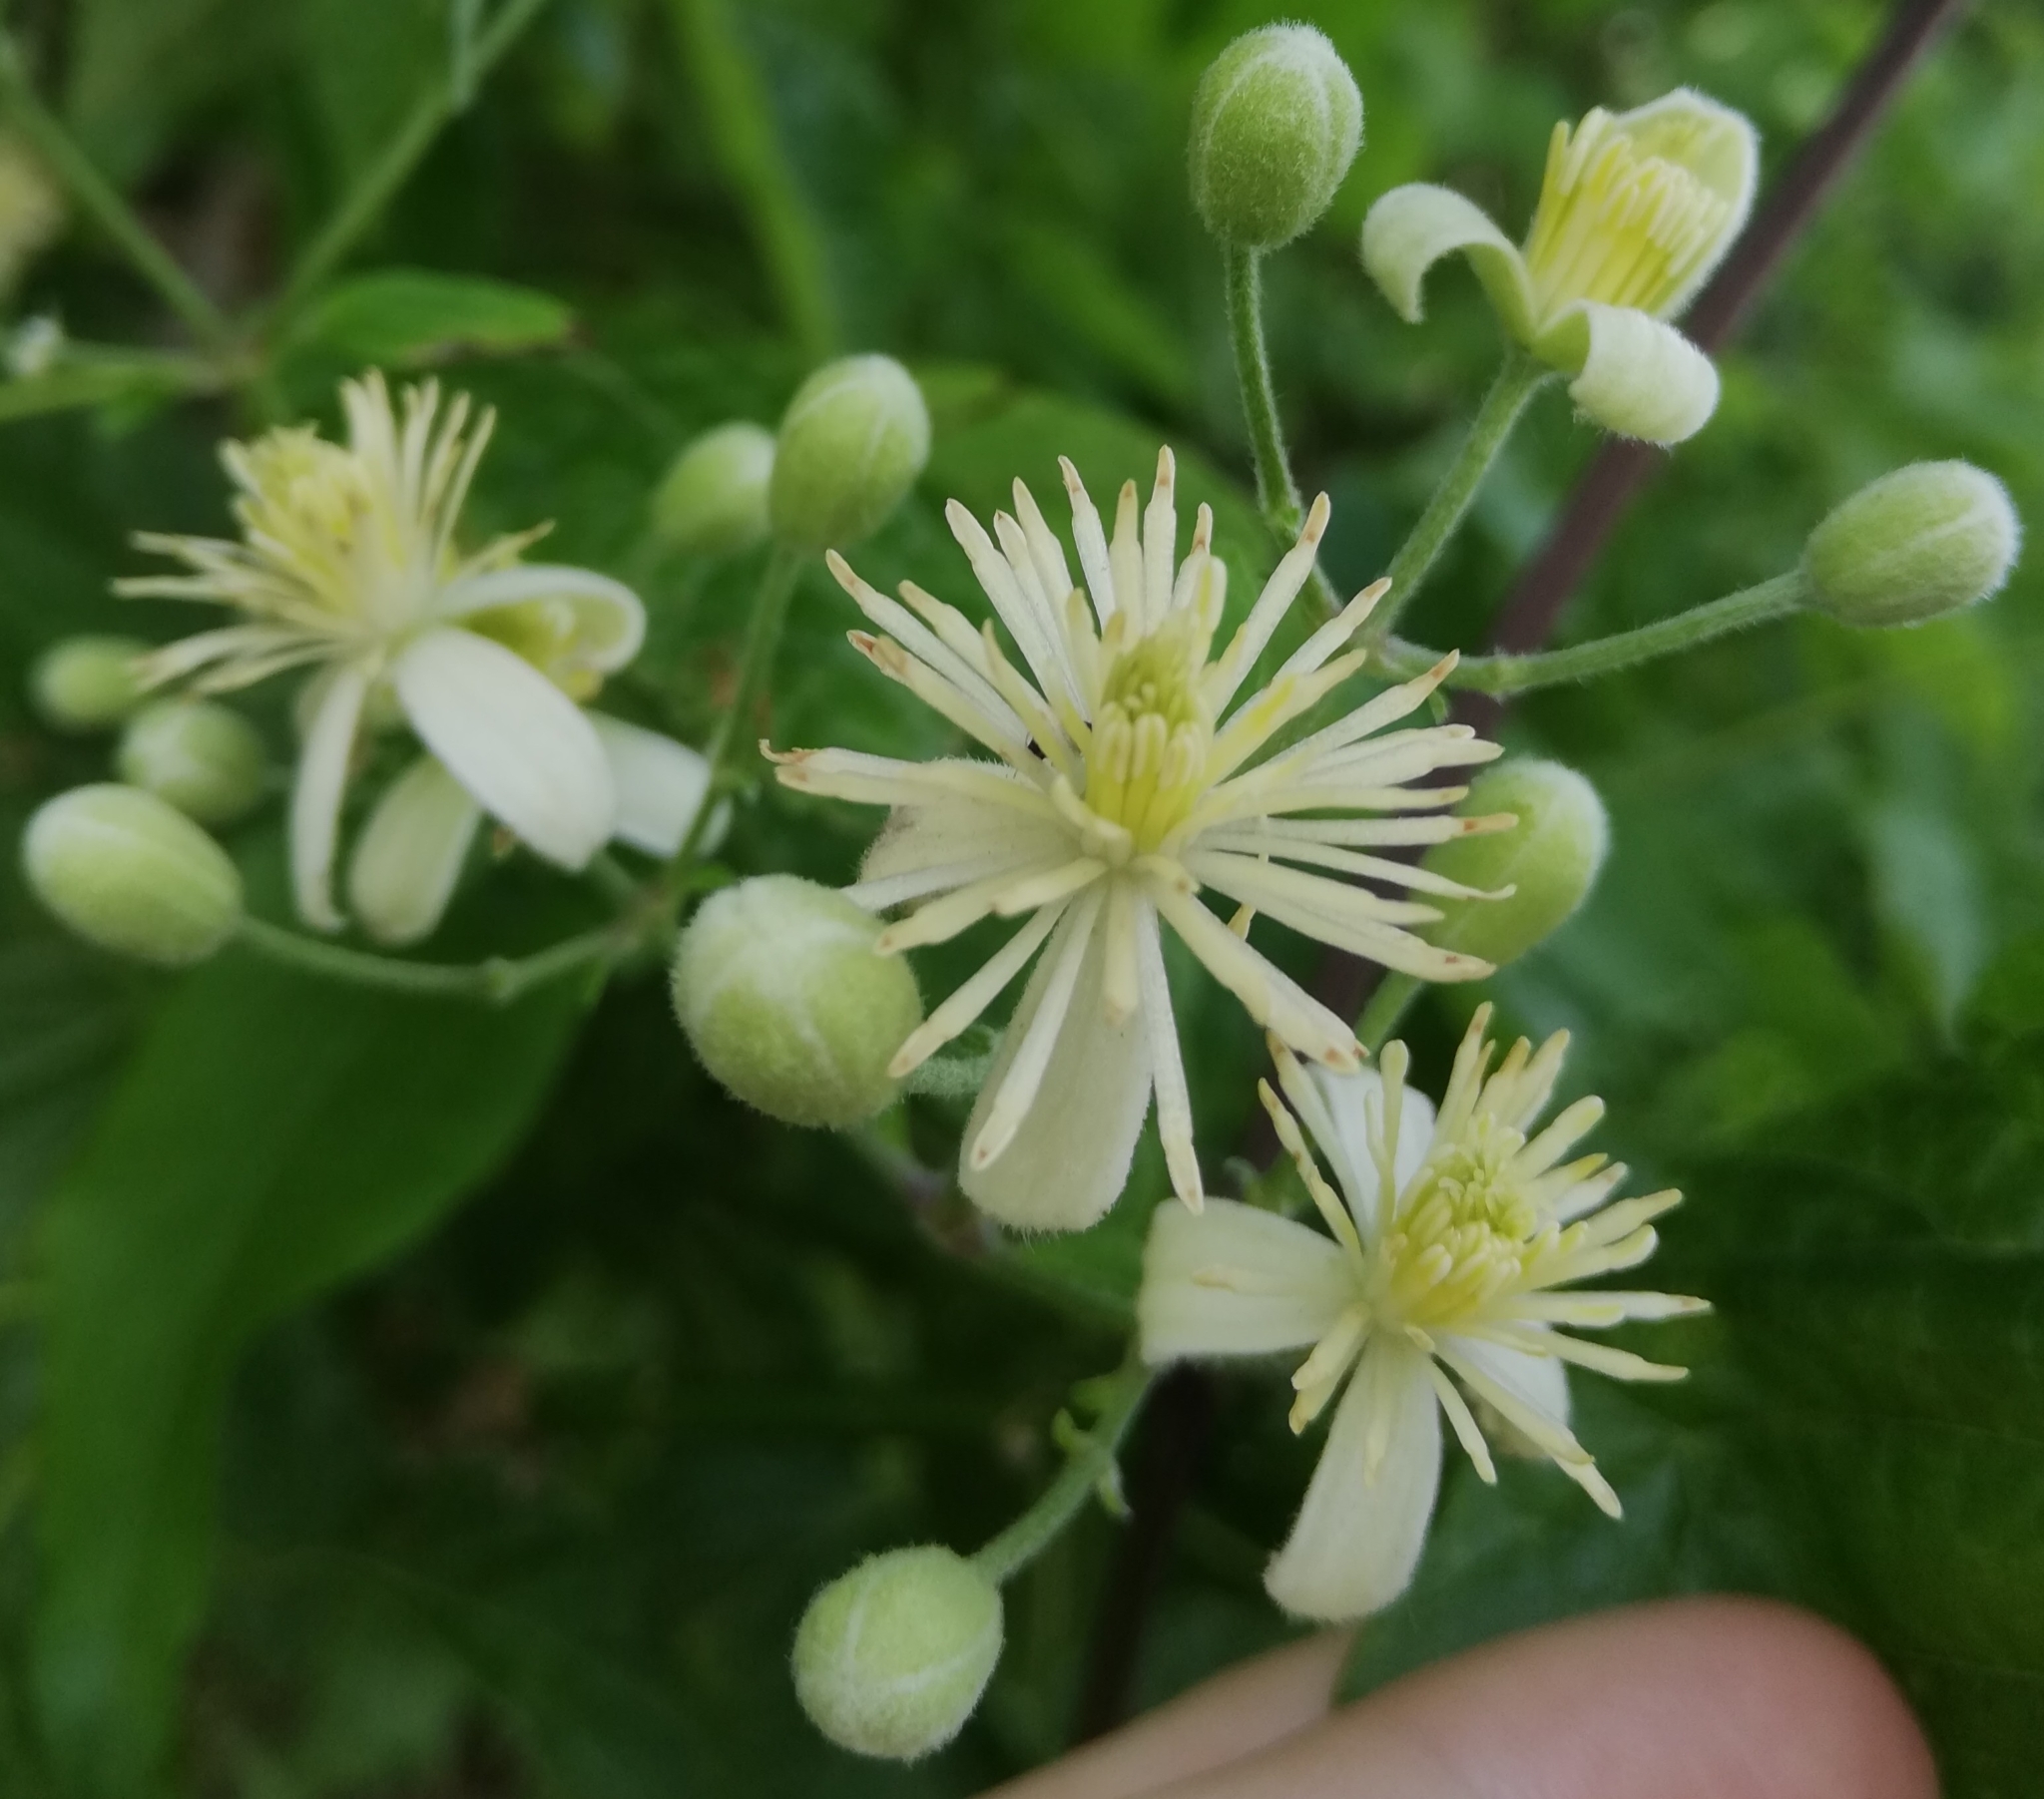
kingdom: Plantae
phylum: Tracheophyta
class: Magnoliopsida
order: Ranunculales
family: Ranunculaceae
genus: Clematis
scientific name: Clematis vitalba
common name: Evergreen clematis
